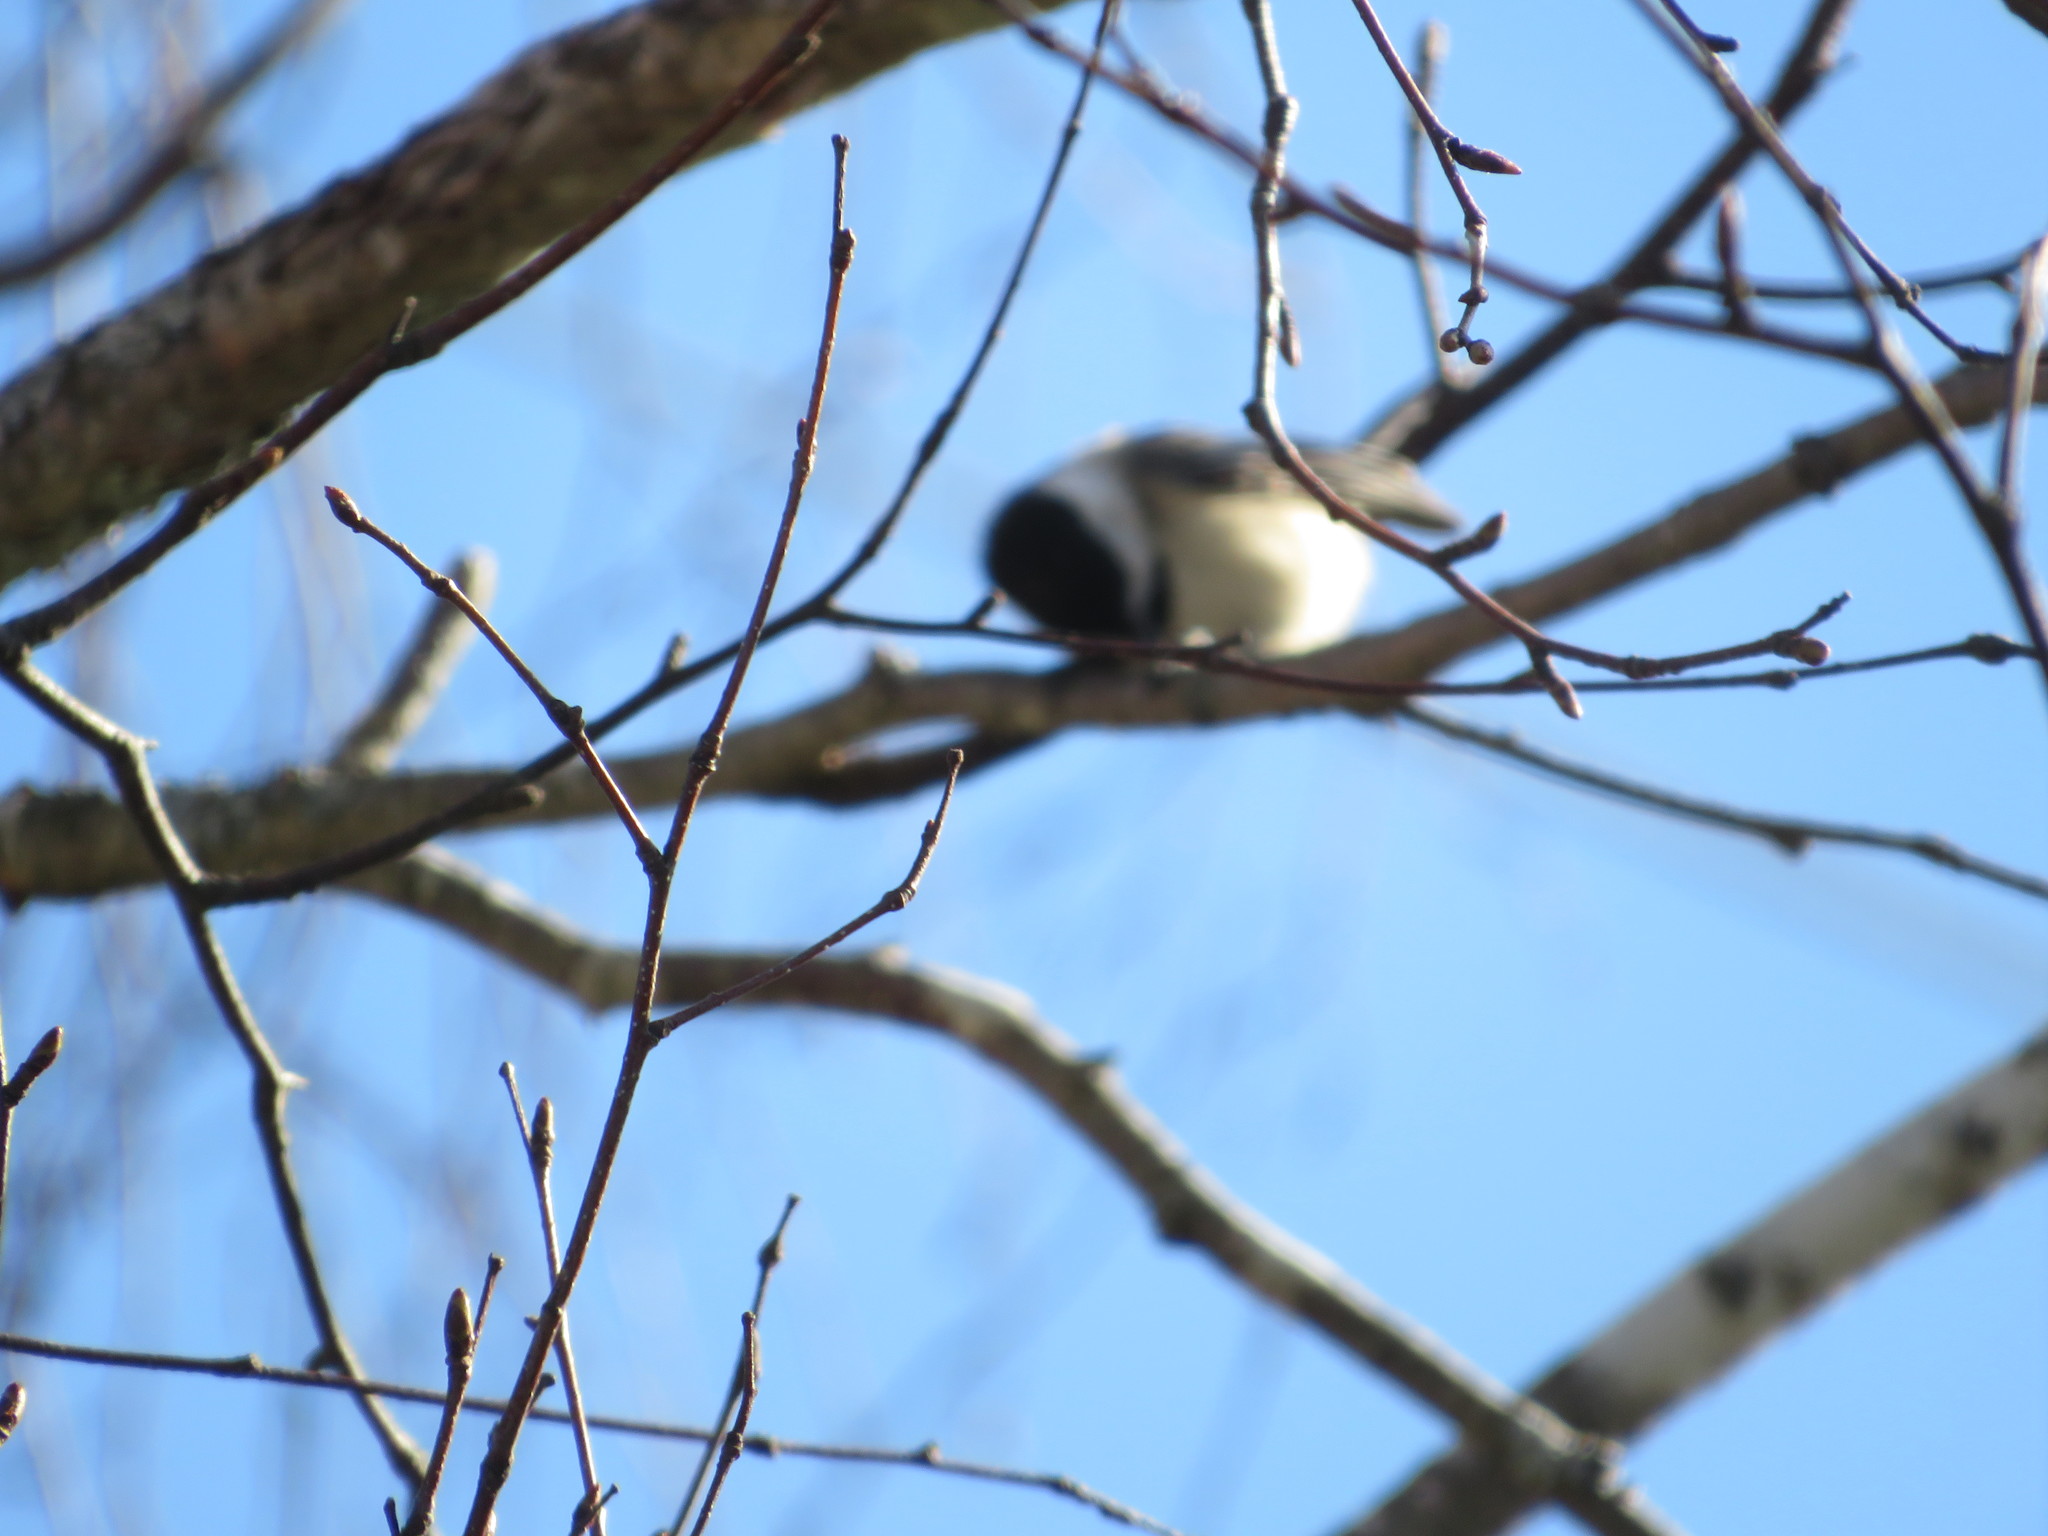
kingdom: Animalia
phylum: Chordata
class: Aves
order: Passeriformes
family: Paridae
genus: Poecile
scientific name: Poecile atricapillus
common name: Black-capped chickadee
